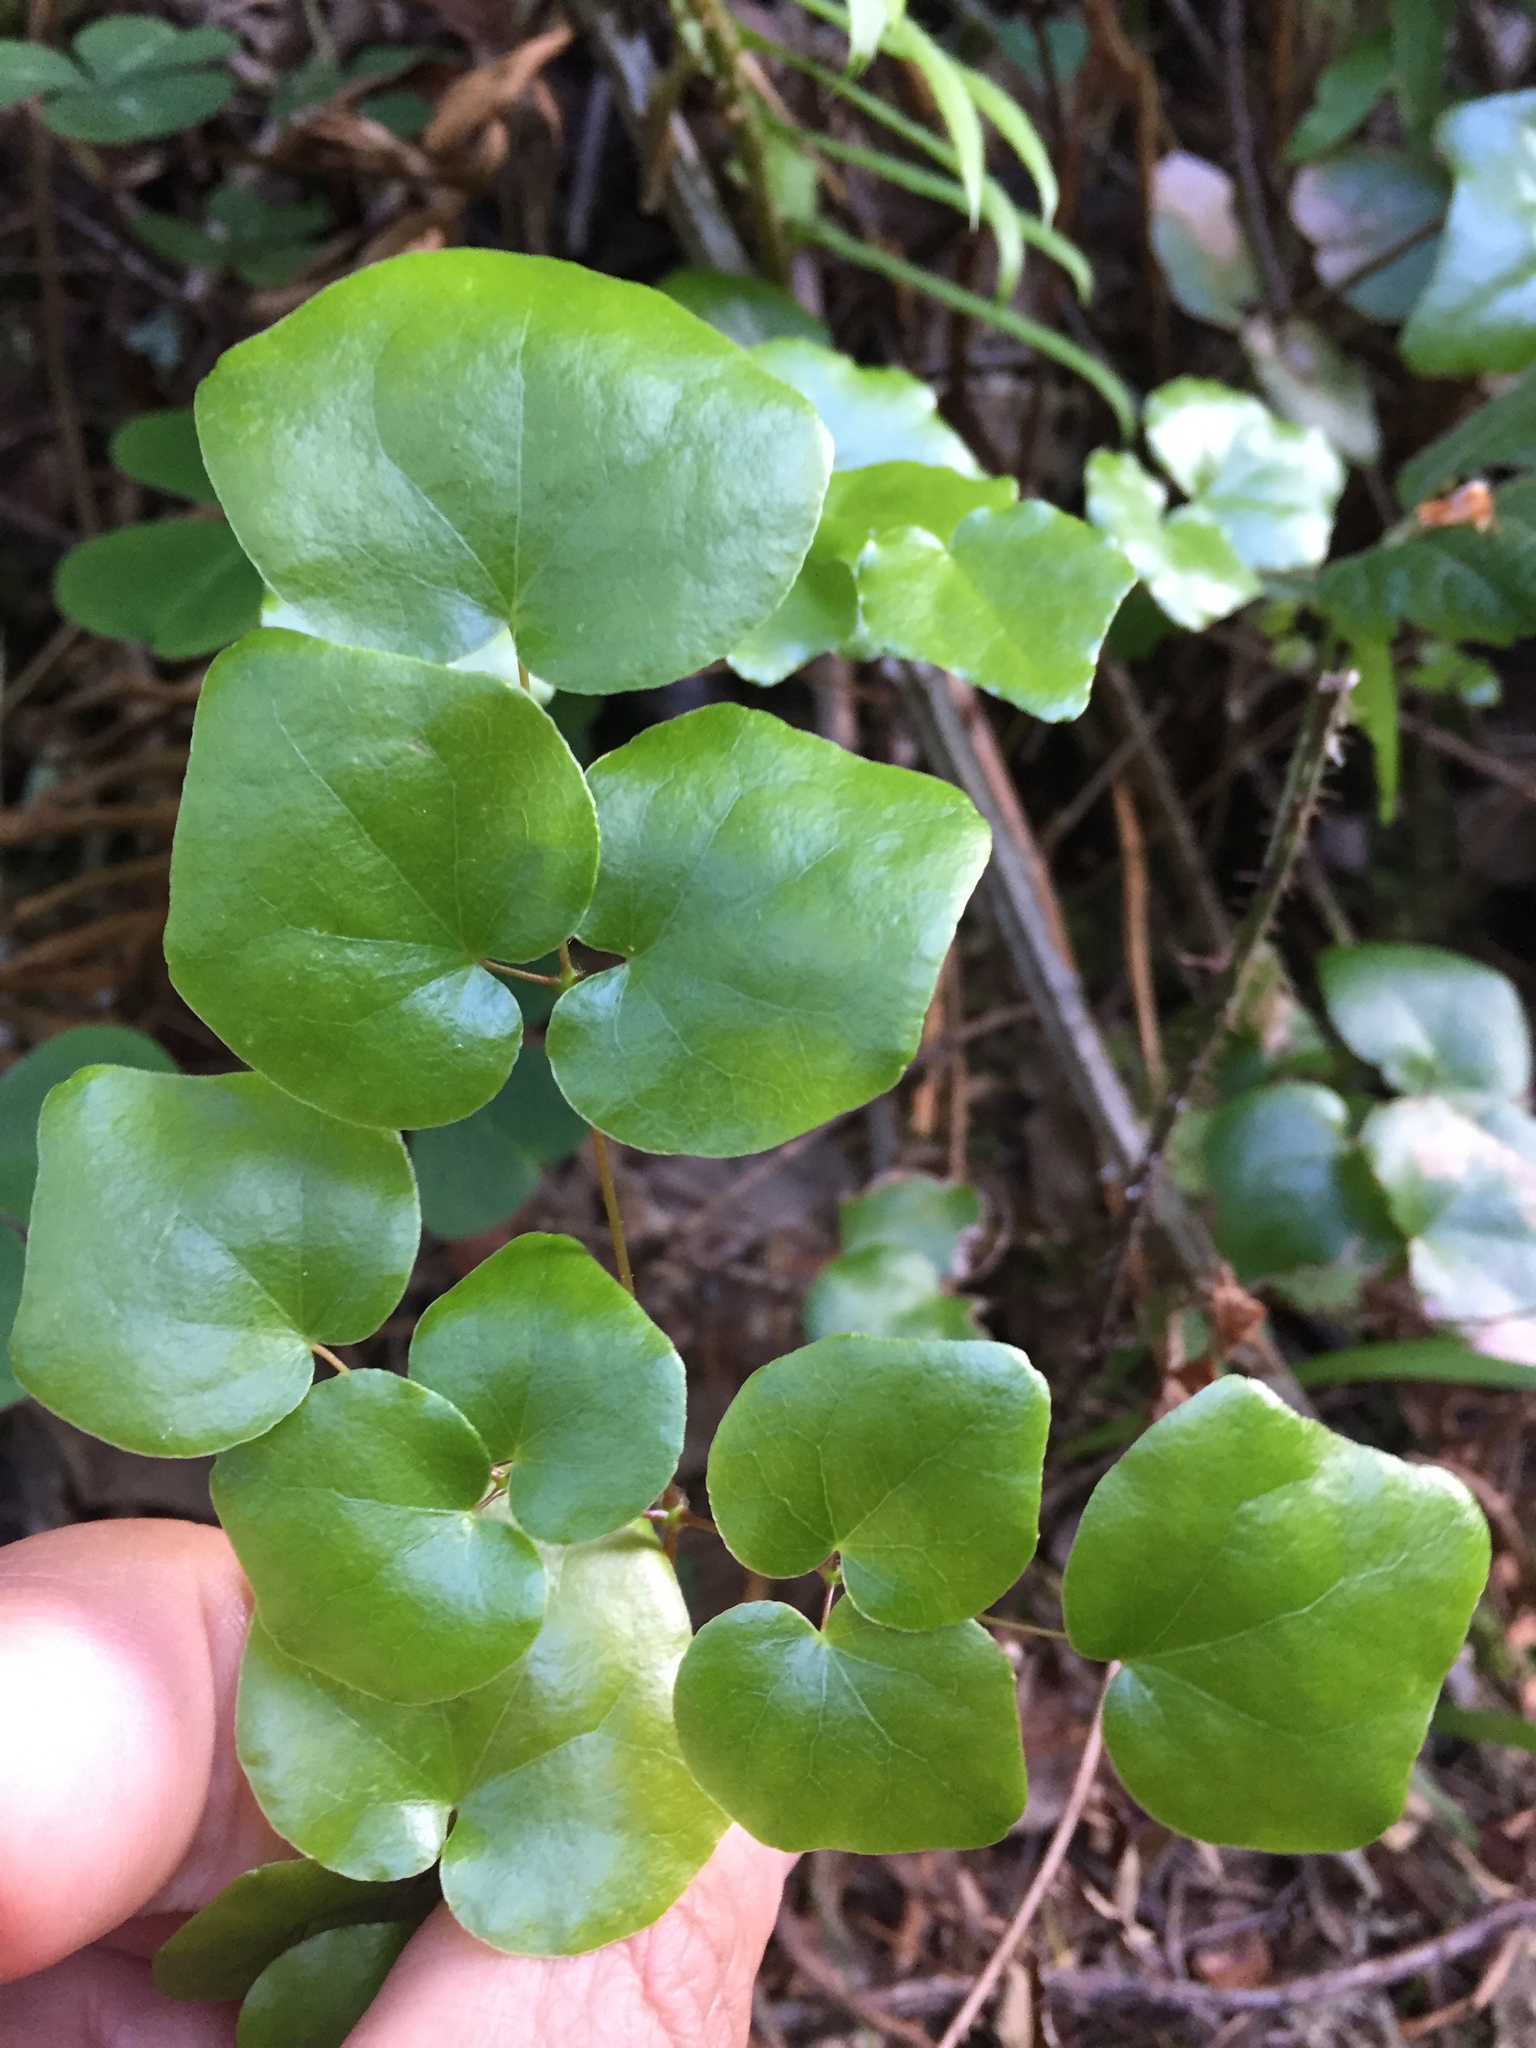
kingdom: Plantae
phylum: Tracheophyta
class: Magnoliopsida
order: Ranunculales
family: Berberidaceae
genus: Vancouveria
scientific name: Vancouveria planipetala
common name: Redwood-ivy
